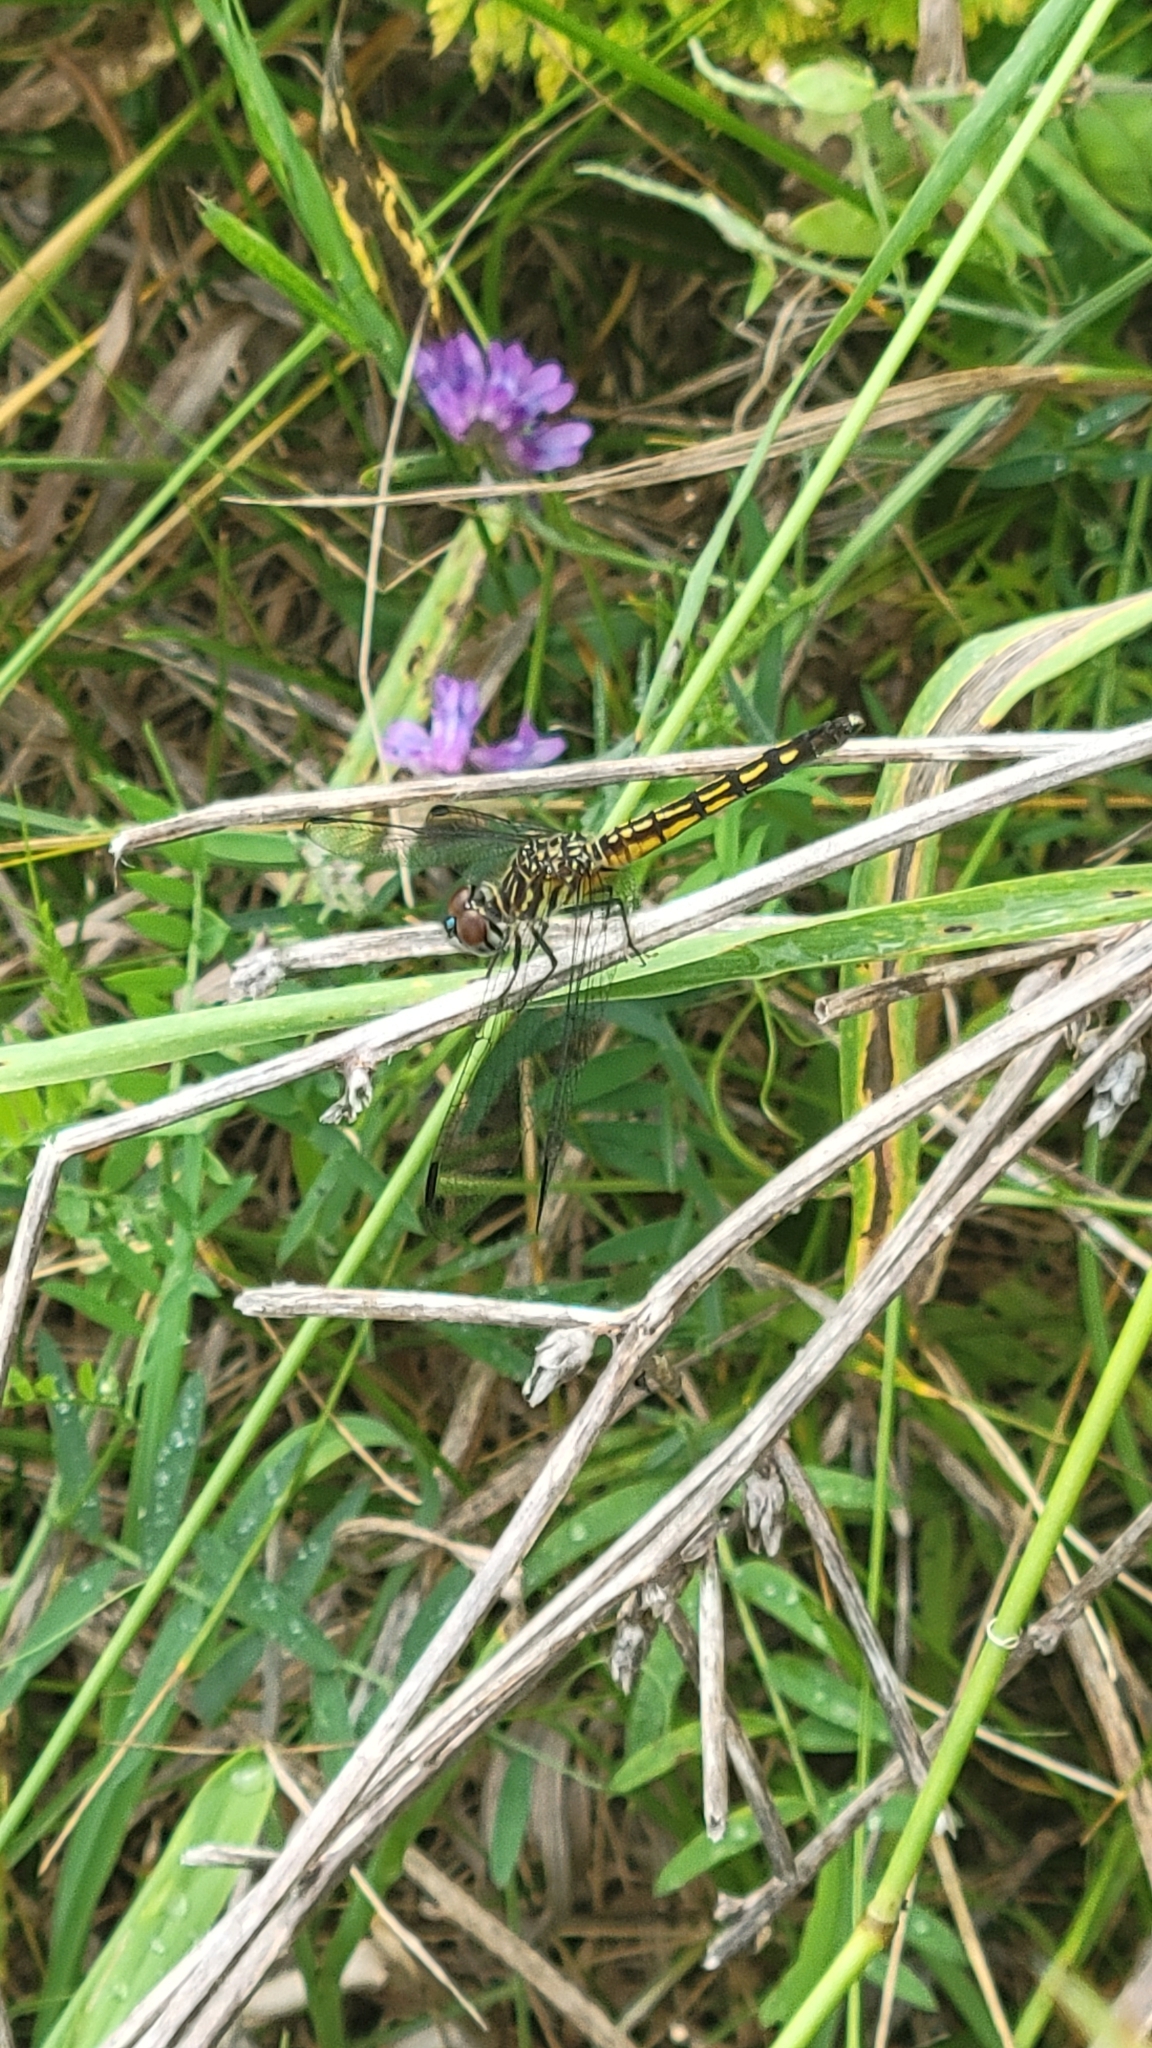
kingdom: Animalia
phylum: Arthropoda
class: Insecta
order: Odonata
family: Libellulidae
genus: Pachydiplax
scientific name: Pachydiplax longipennis
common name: Blue dasher
